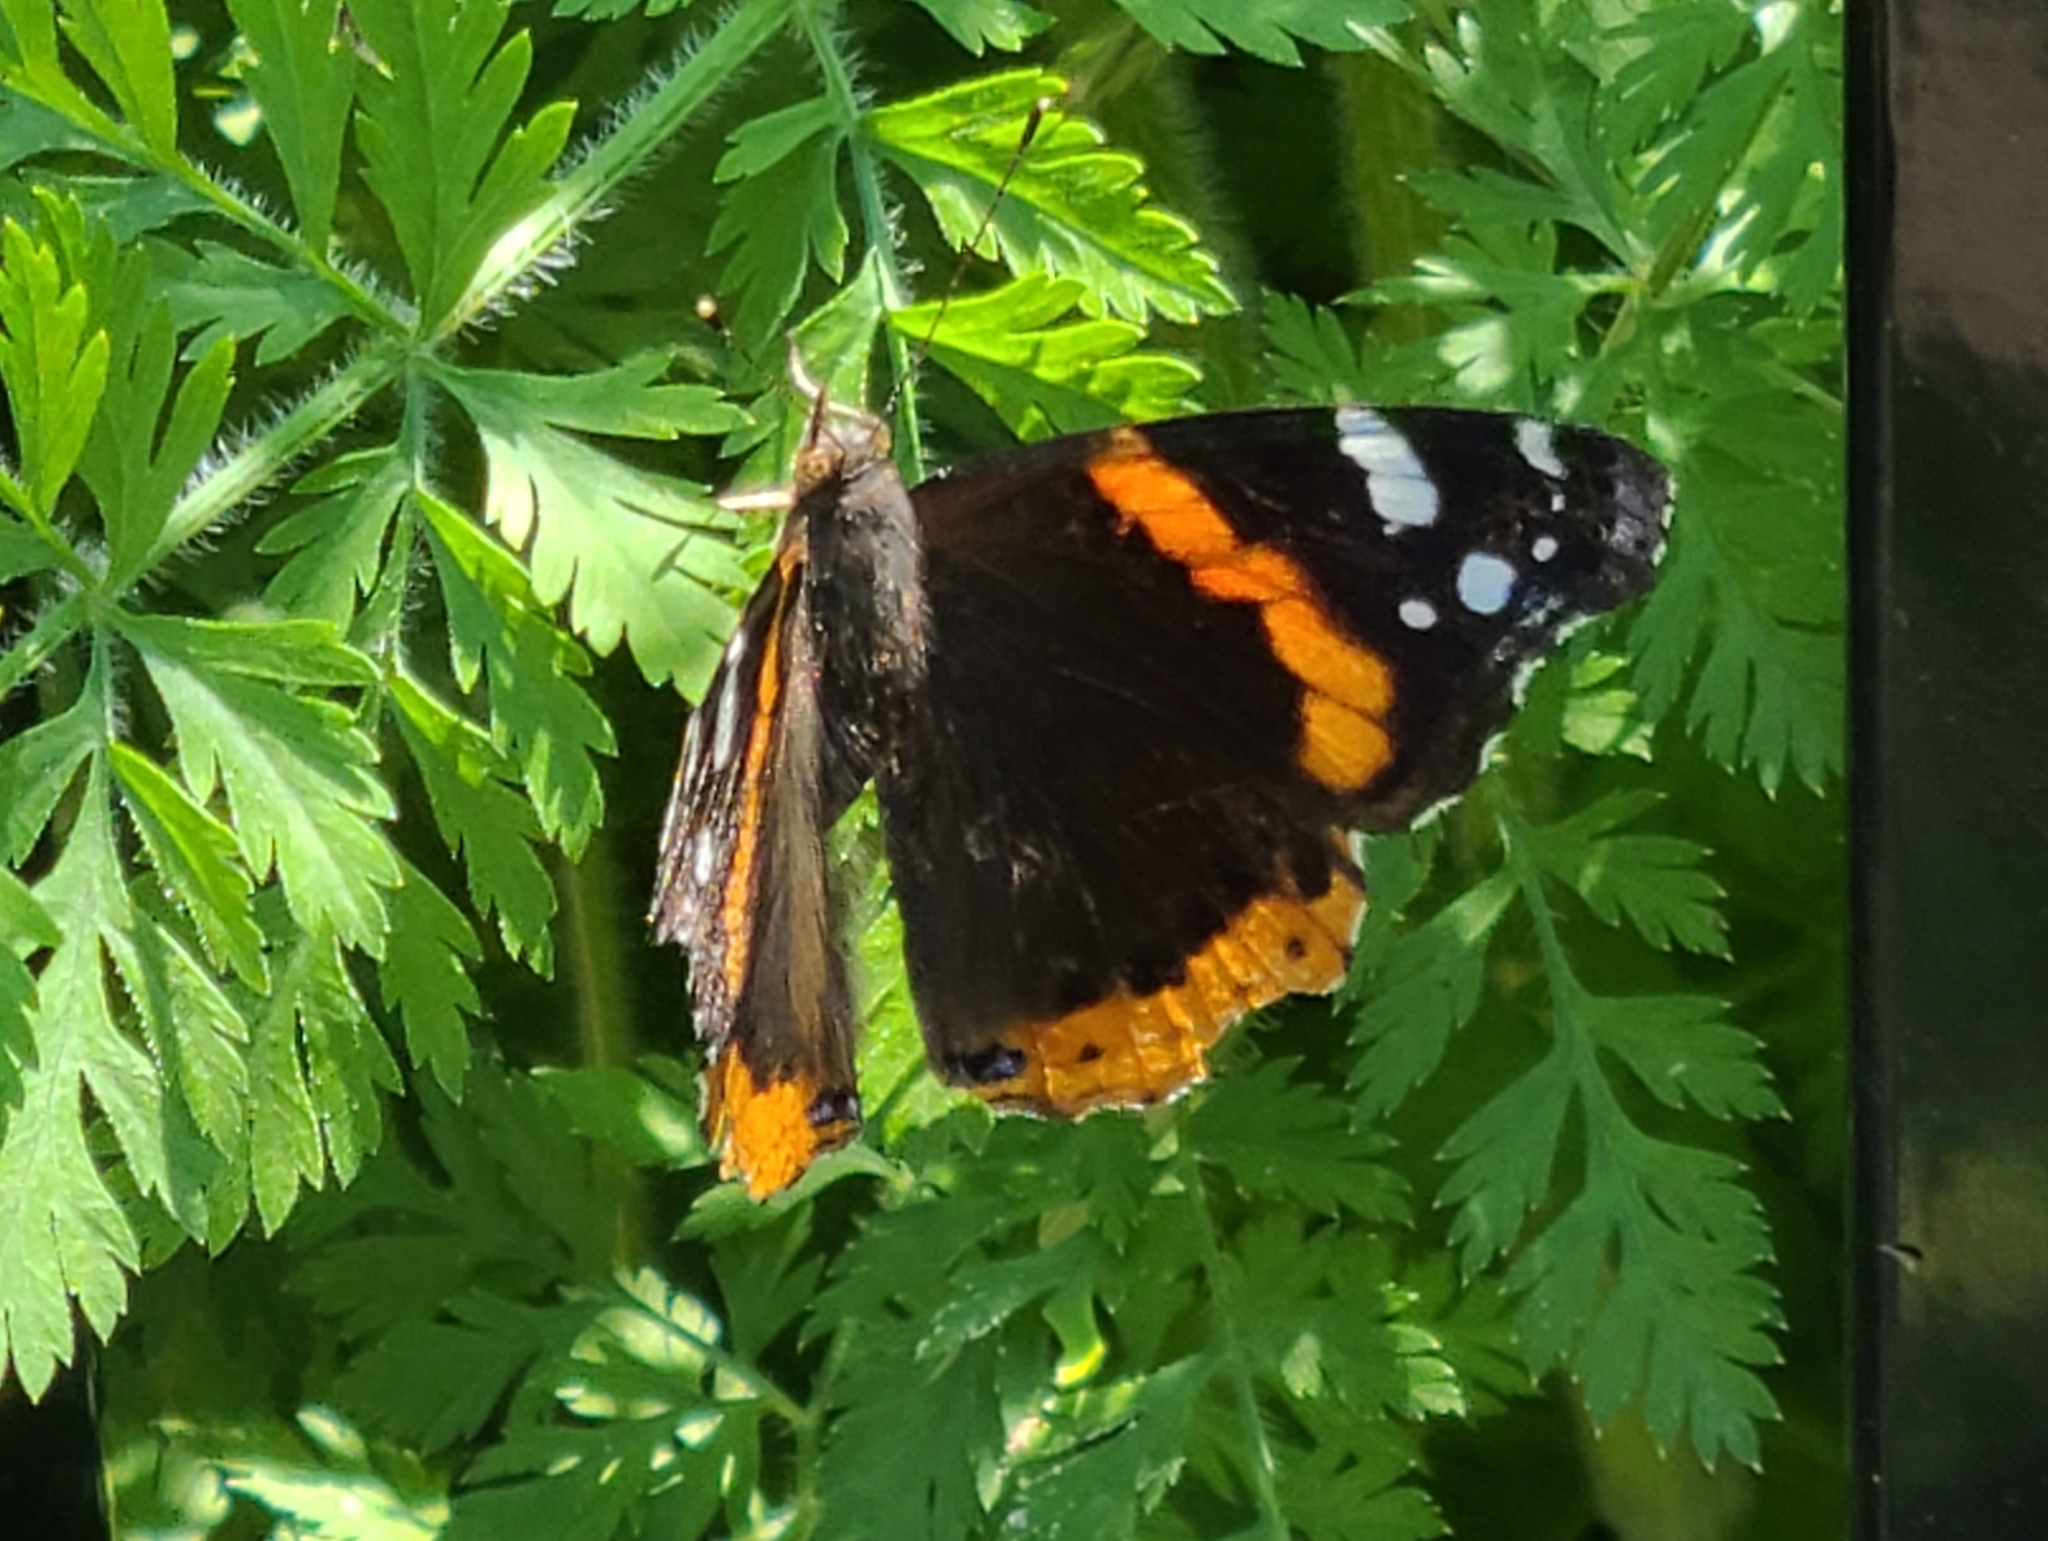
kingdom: Animalia
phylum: Arthropoda
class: Insecta
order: Lepidoptera
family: Nymphalidae
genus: Vanessa
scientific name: Vanessa atalanta
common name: Red admiral
